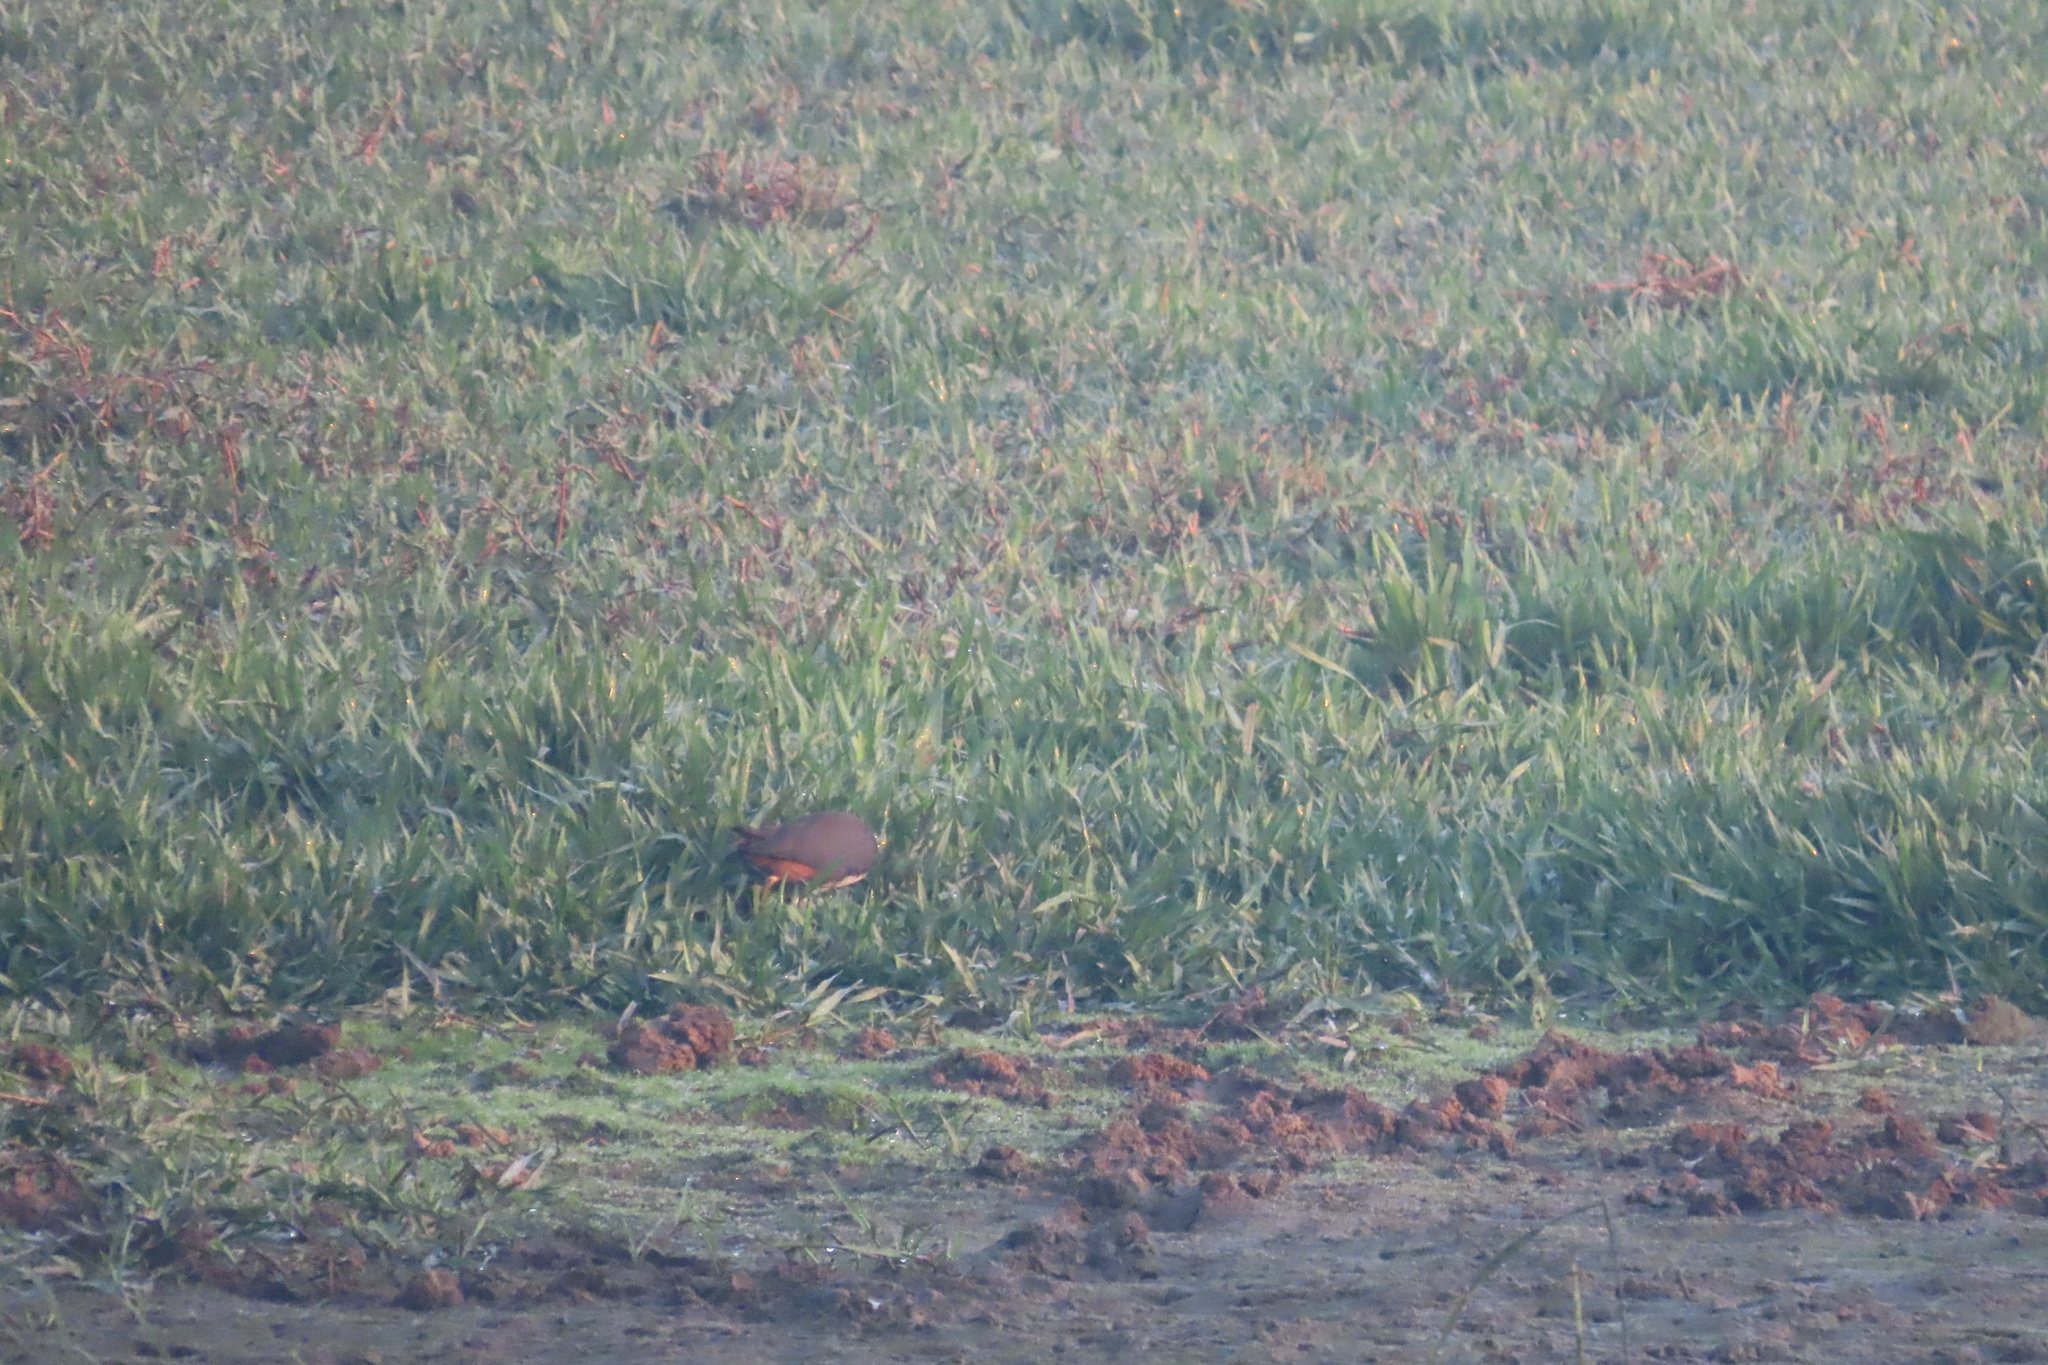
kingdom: Animalia
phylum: Chordata
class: Aves
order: Gruiformes
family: Rallidae
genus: Amaurornis
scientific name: Amaurornis phoenicurus
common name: White-breasted waterhen
